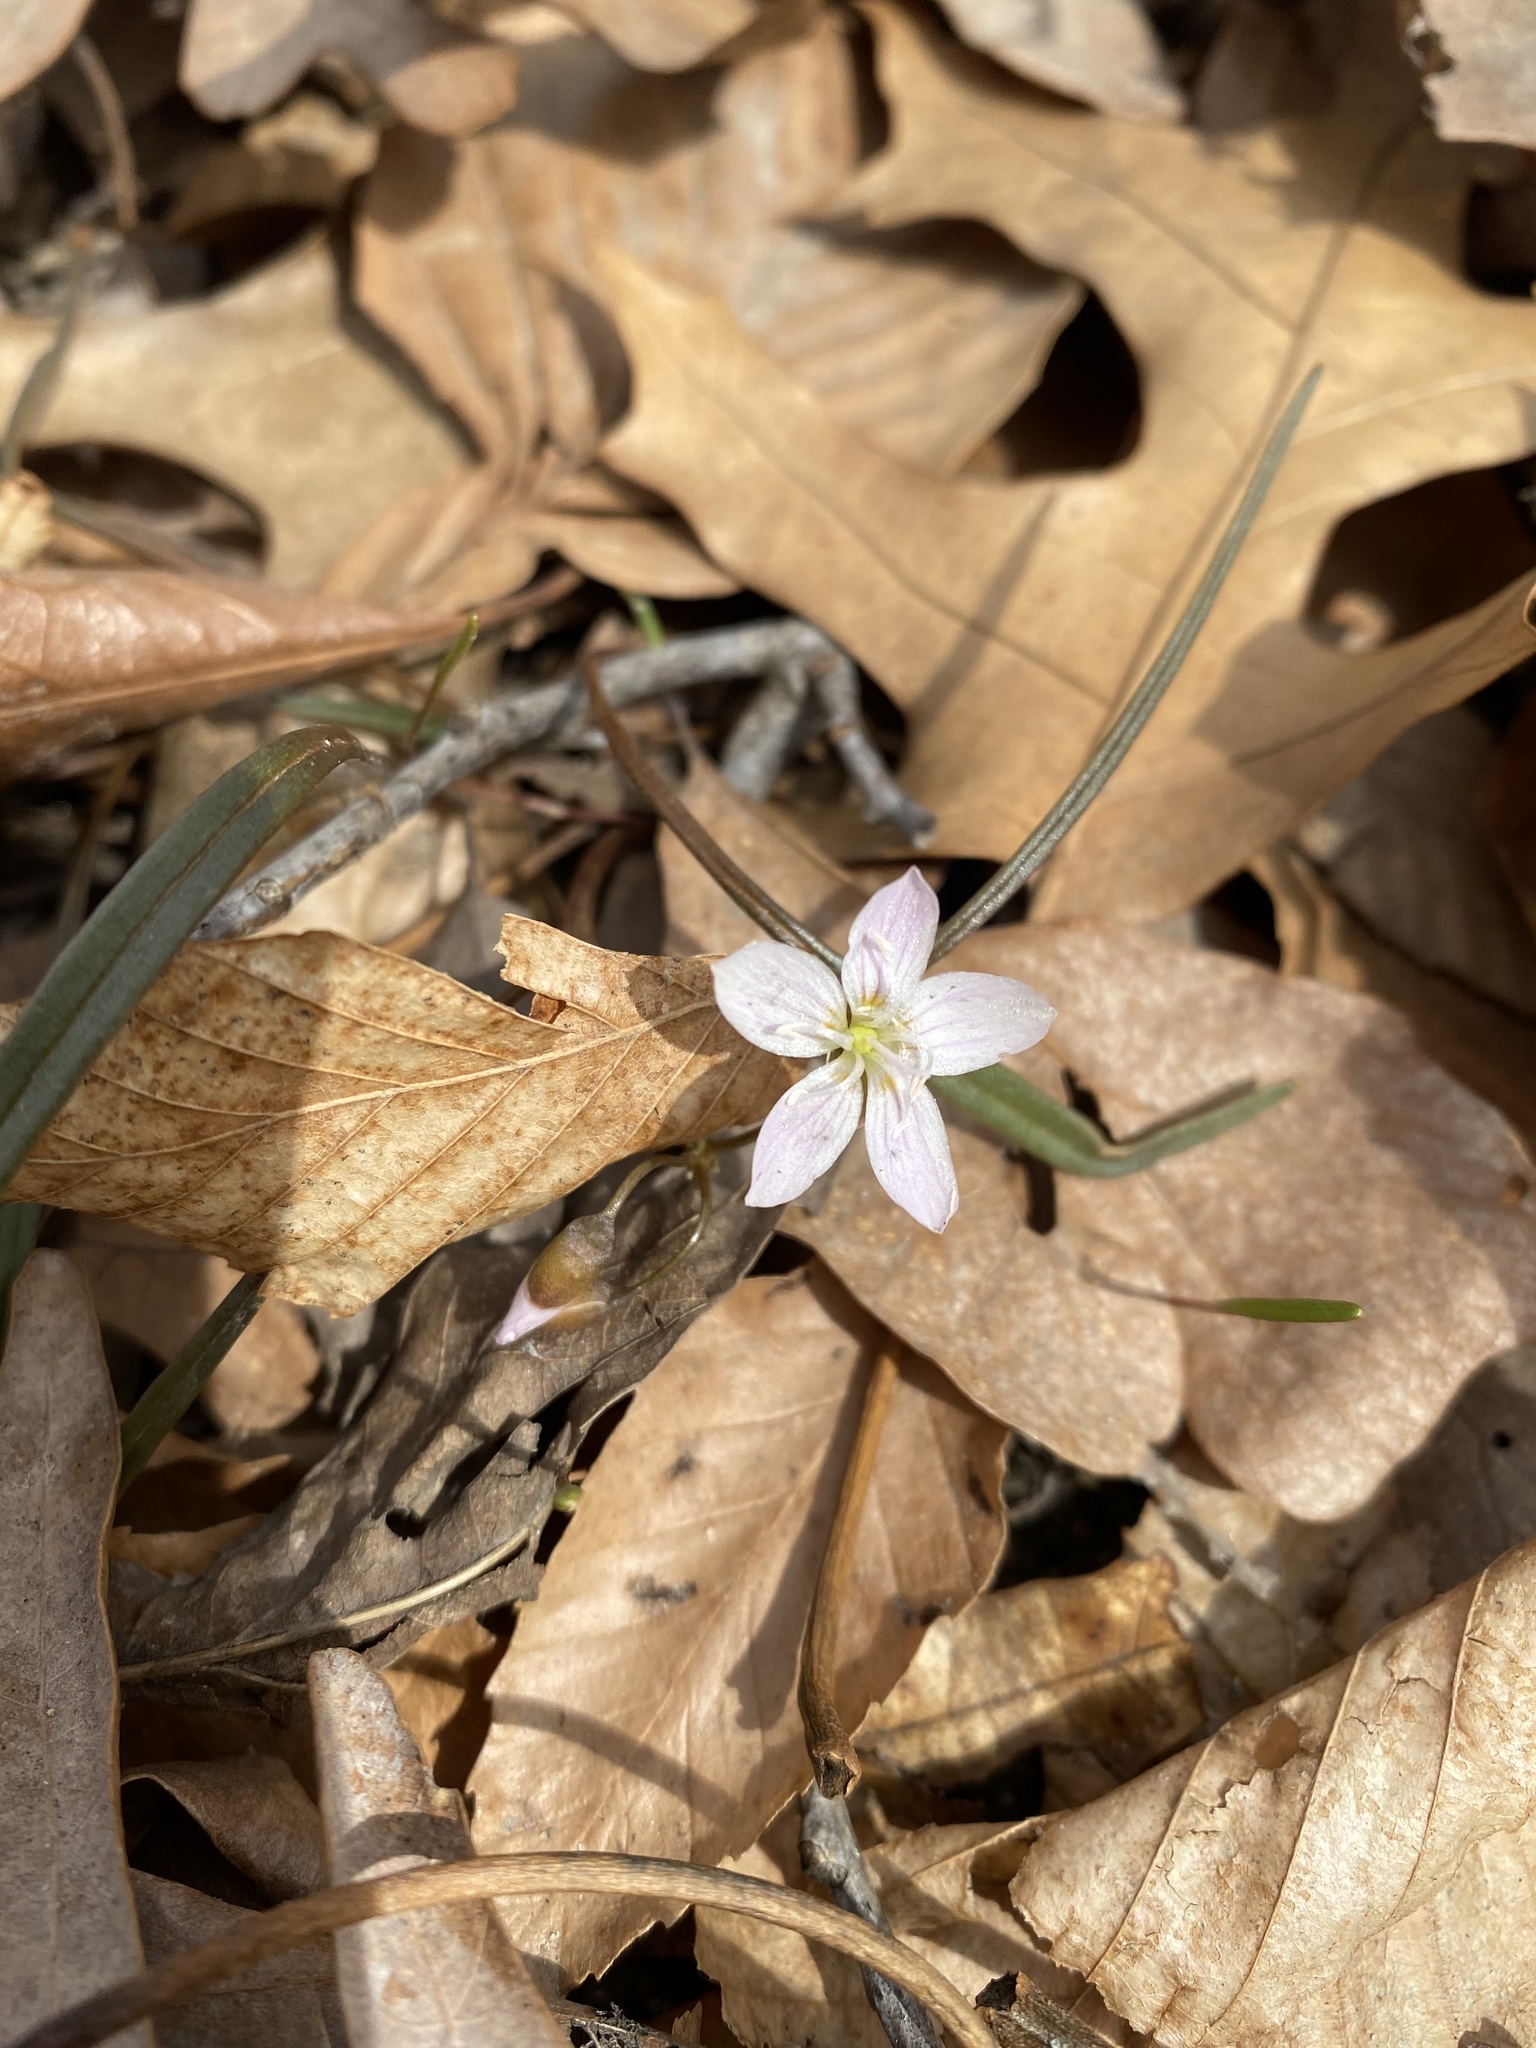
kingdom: Plantae
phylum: Tracheophyta
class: Magnoliopsida
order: Caryophyllales
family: Montiaceae
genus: Claytonia
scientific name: Claytonia virginica
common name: Virginia springbeauty
